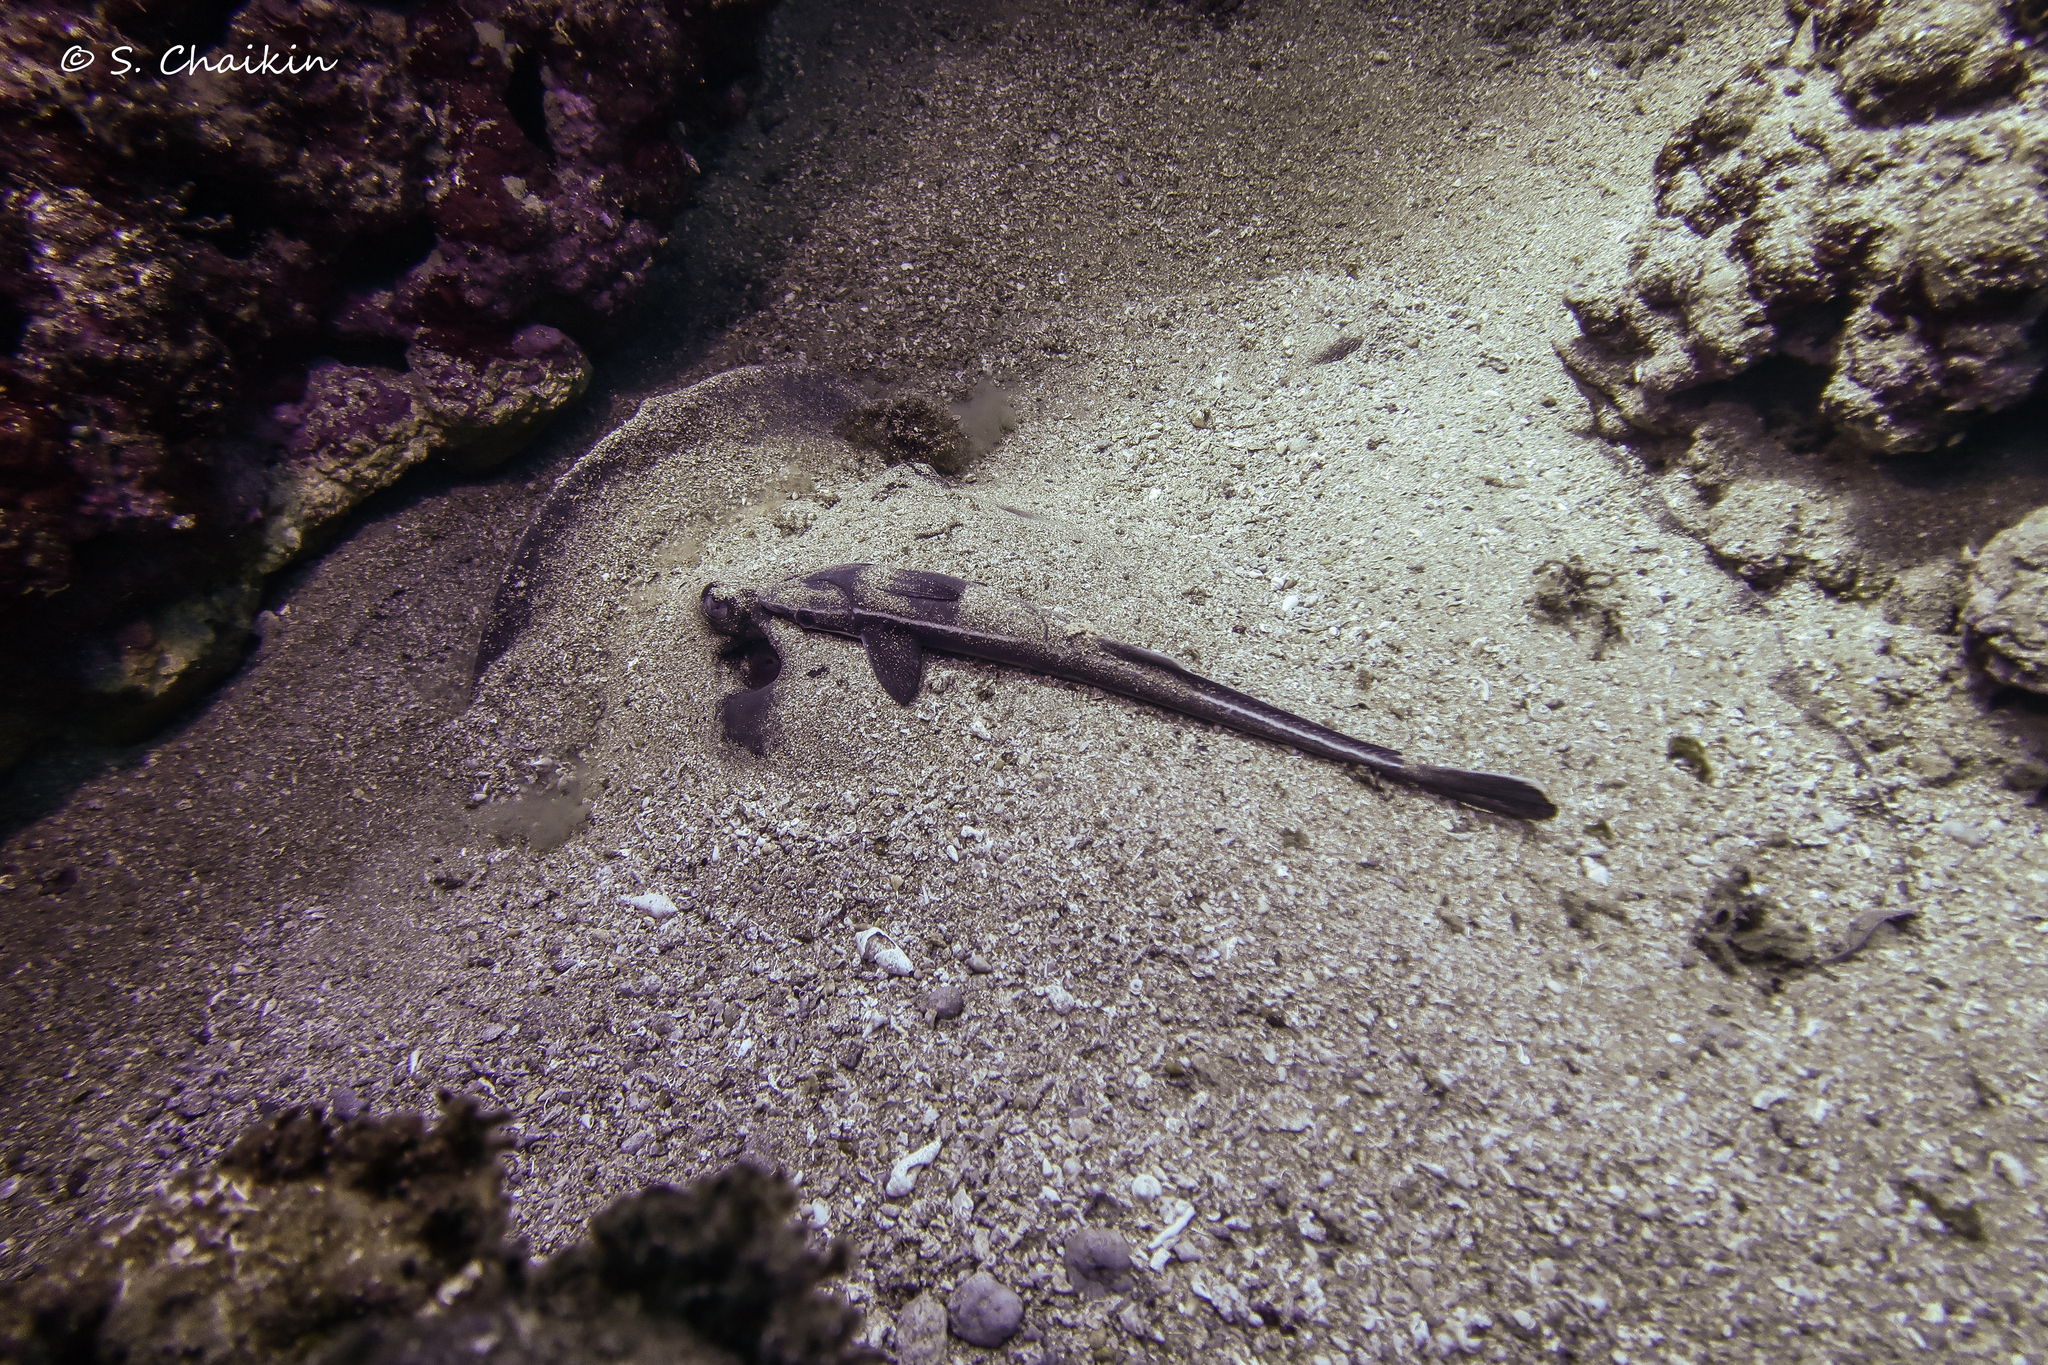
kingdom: Animalia
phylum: Chordata
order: Perciformes
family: Echeneidae
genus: Echeneis
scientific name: Echeneis naucrates
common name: Sharksucker
